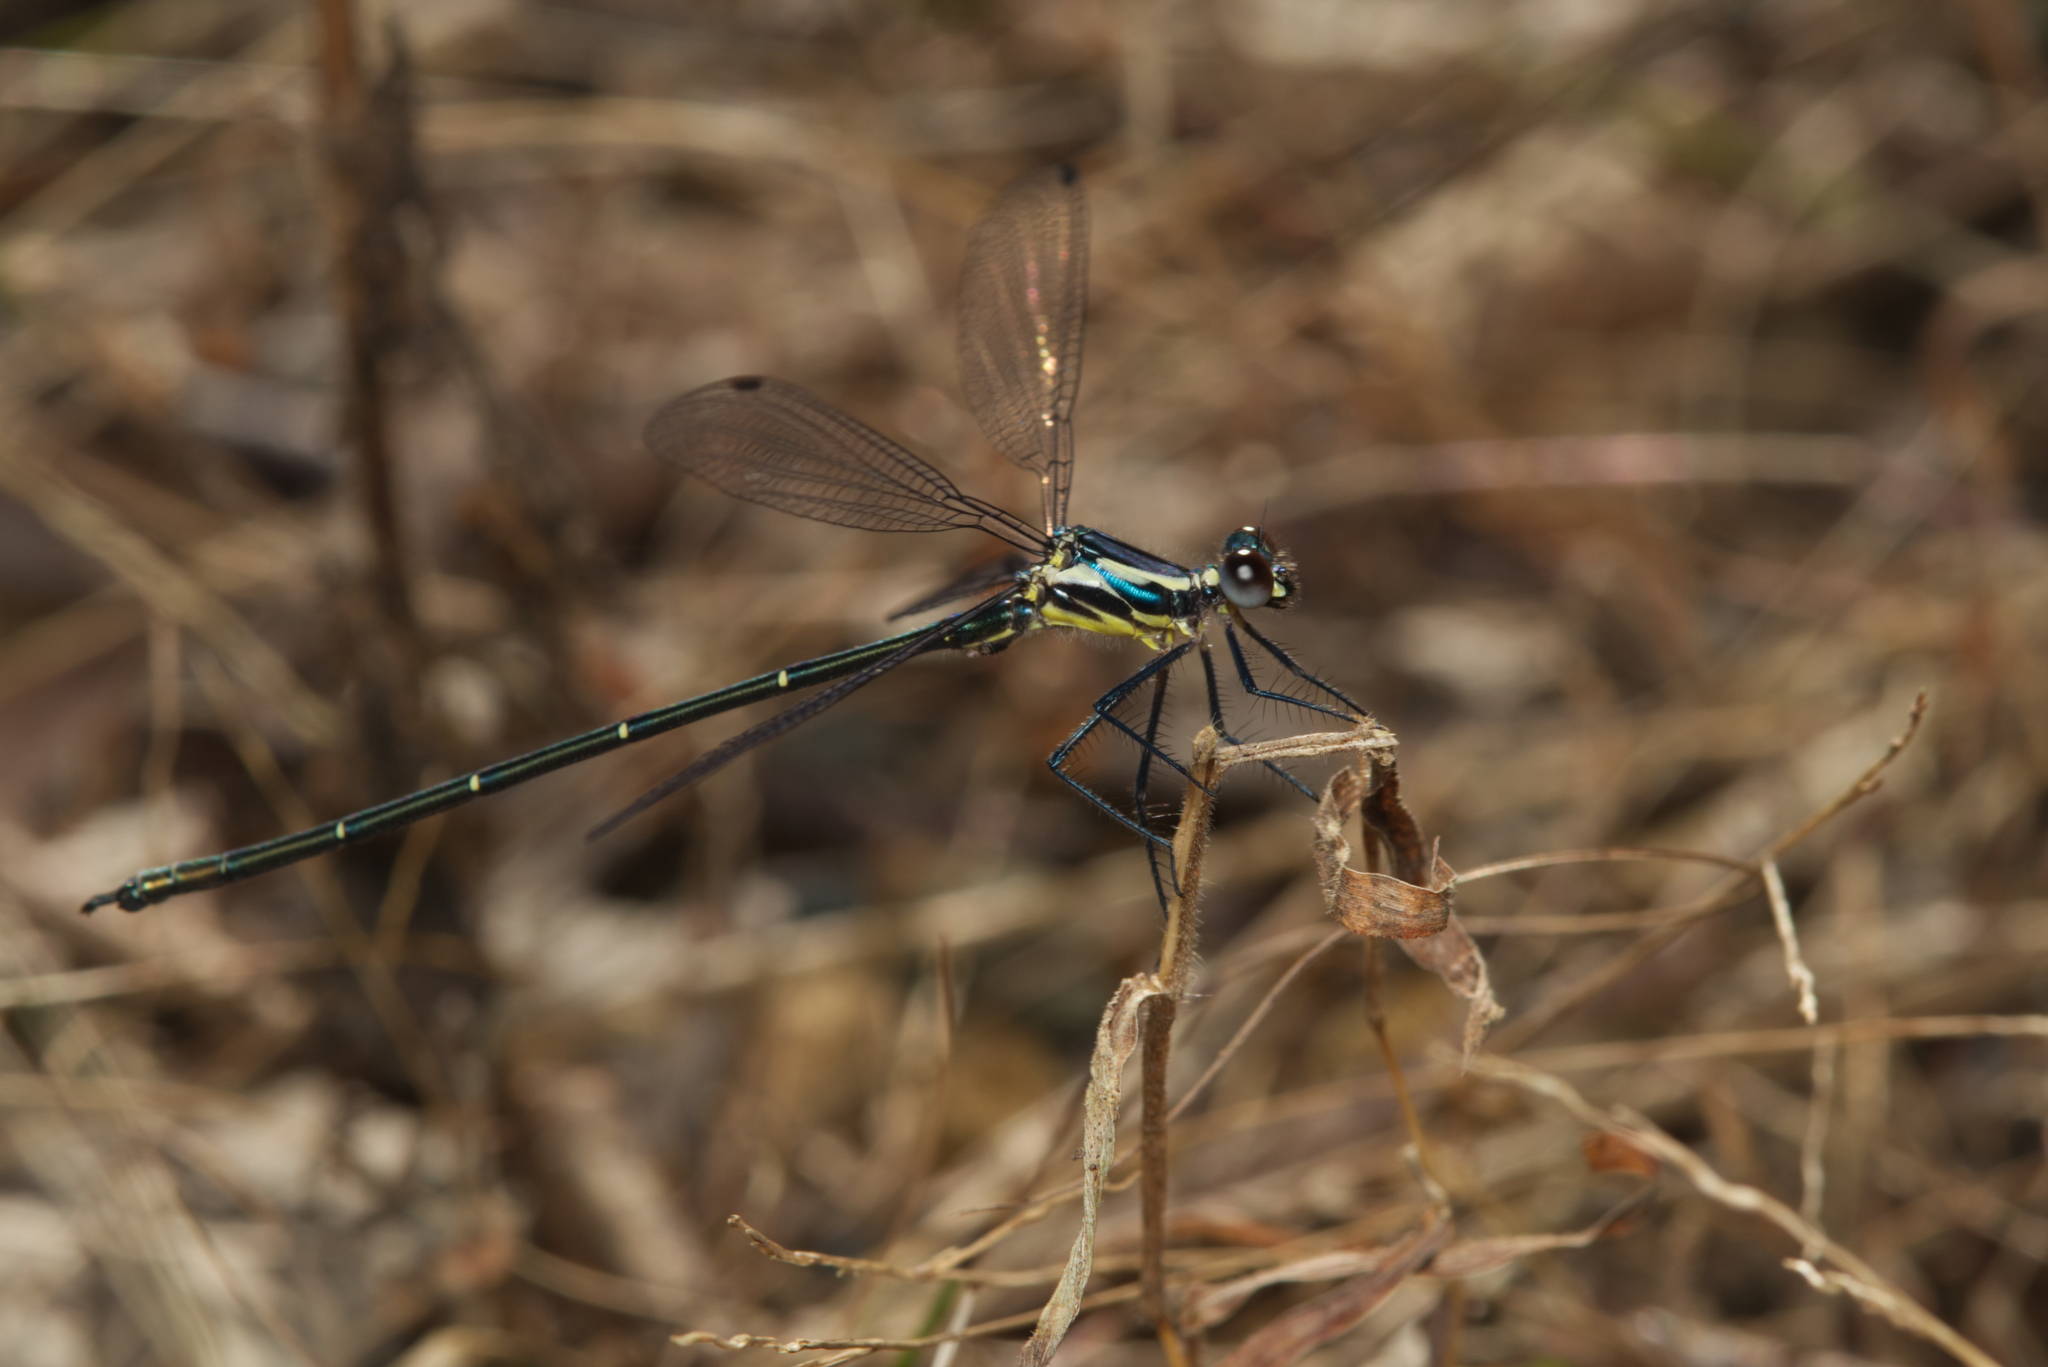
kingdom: Animalia
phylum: Arthropoda
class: Insecta
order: Odonata
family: Argiolestidae
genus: Austroargiolestes
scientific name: Austroargiolestes icteromelas
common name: Common flatwing
